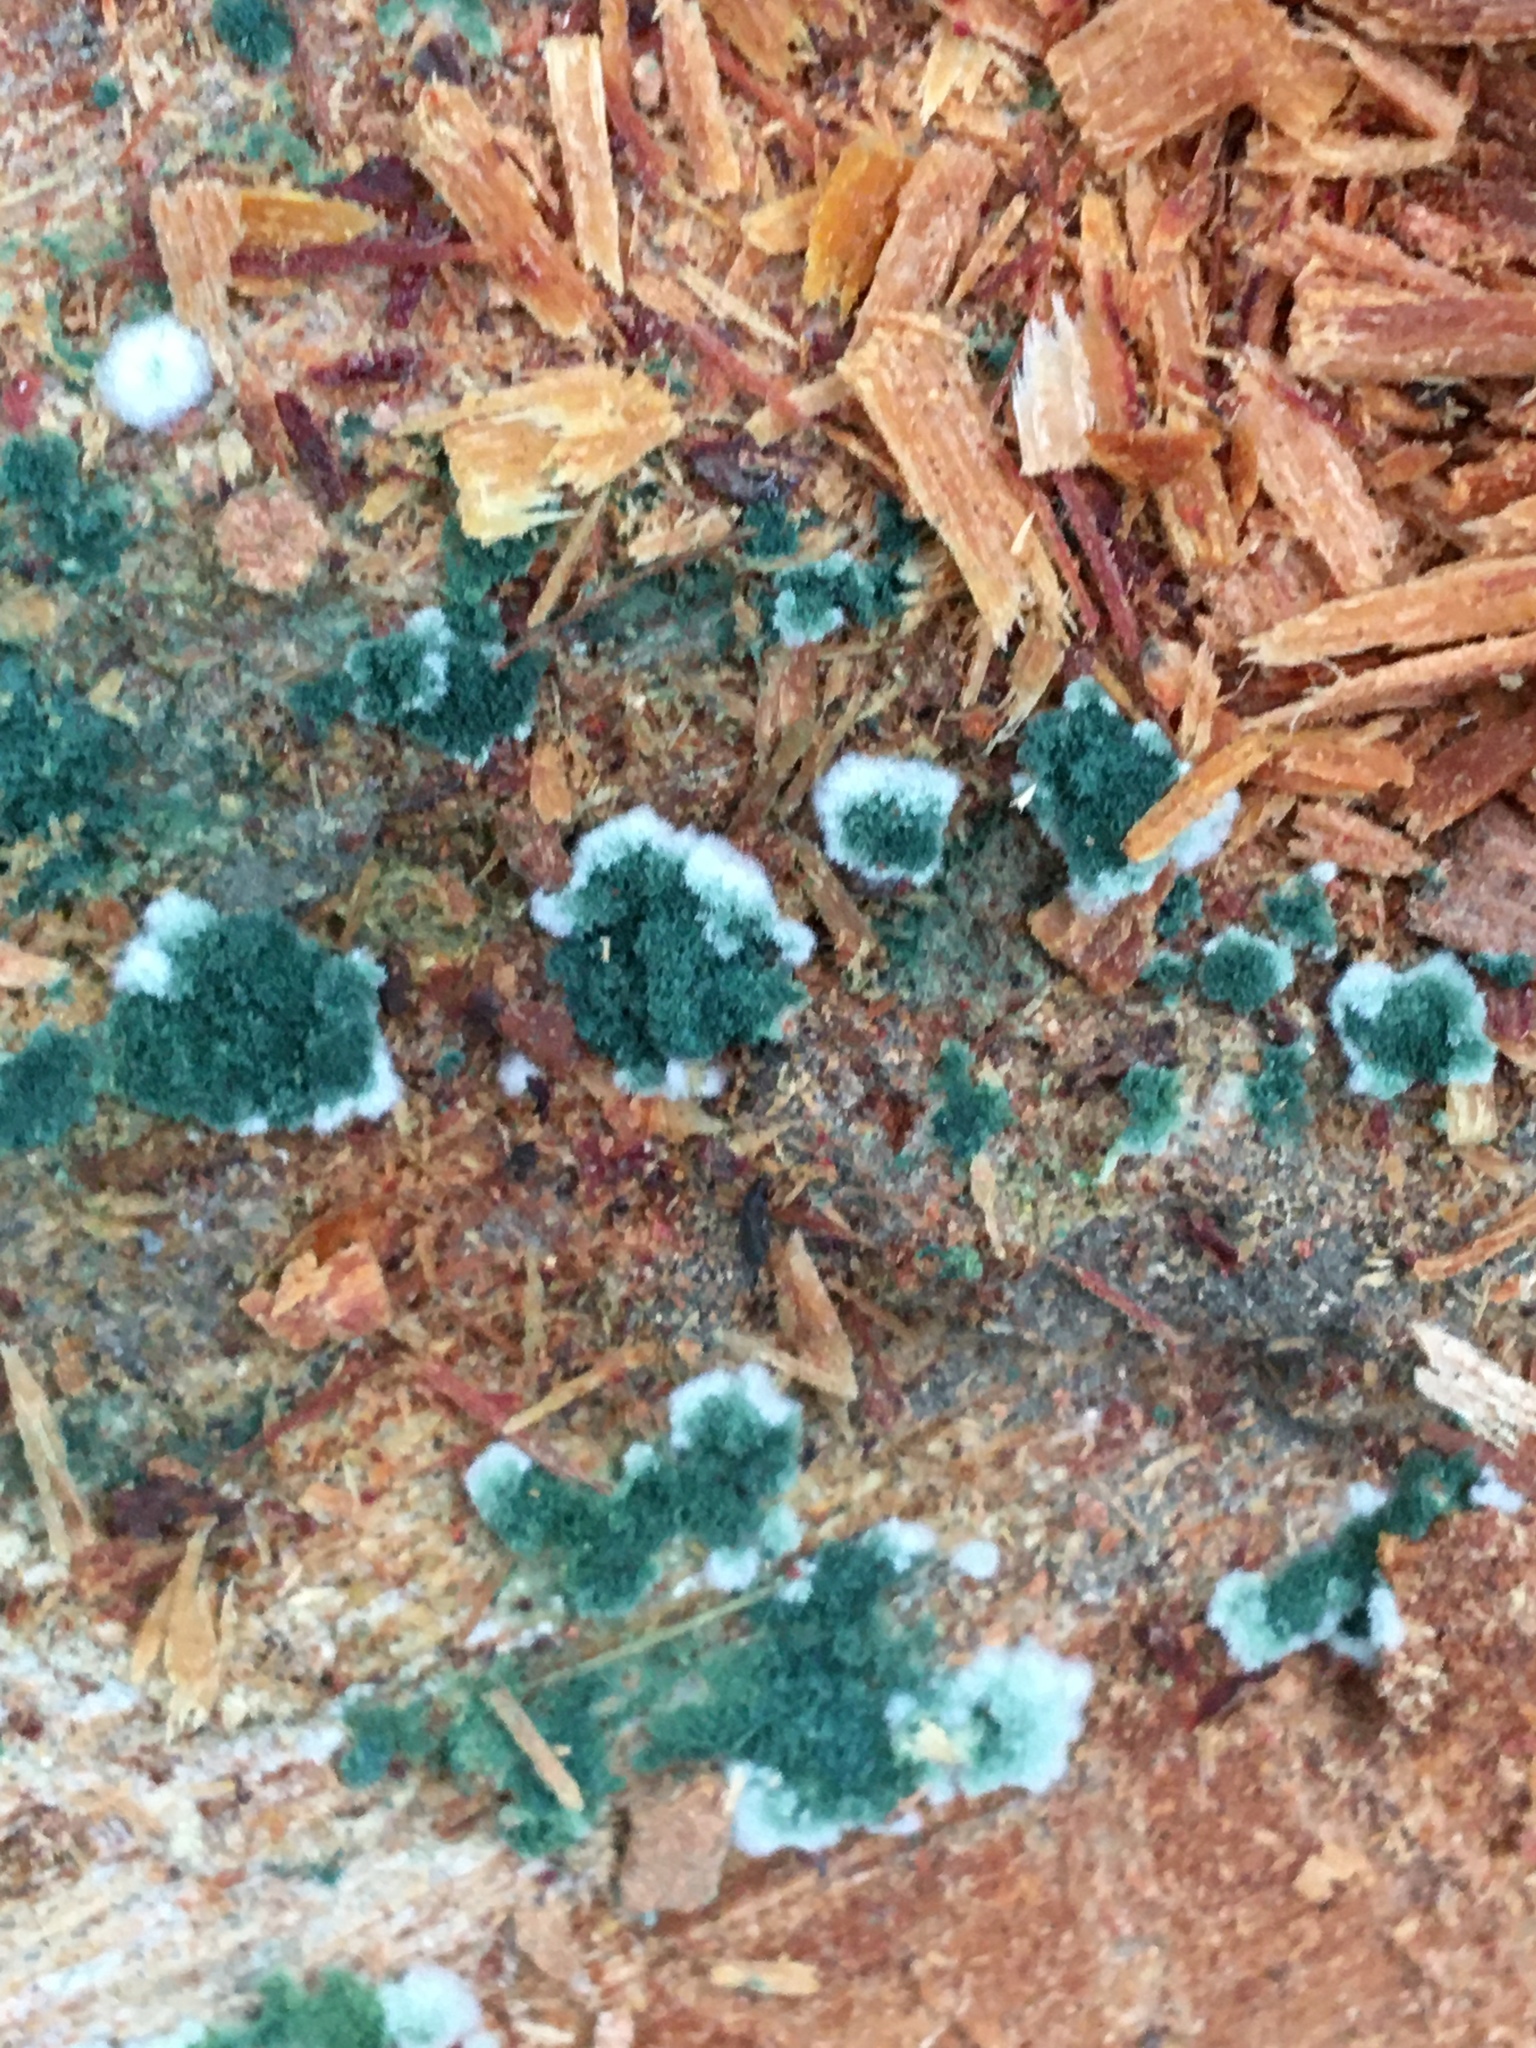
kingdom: Fungi
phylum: Ascomycota
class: Sordariomycetes
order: Hypocreales
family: Hypocreaceae
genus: Trichoderma
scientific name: Trichoderma viride
